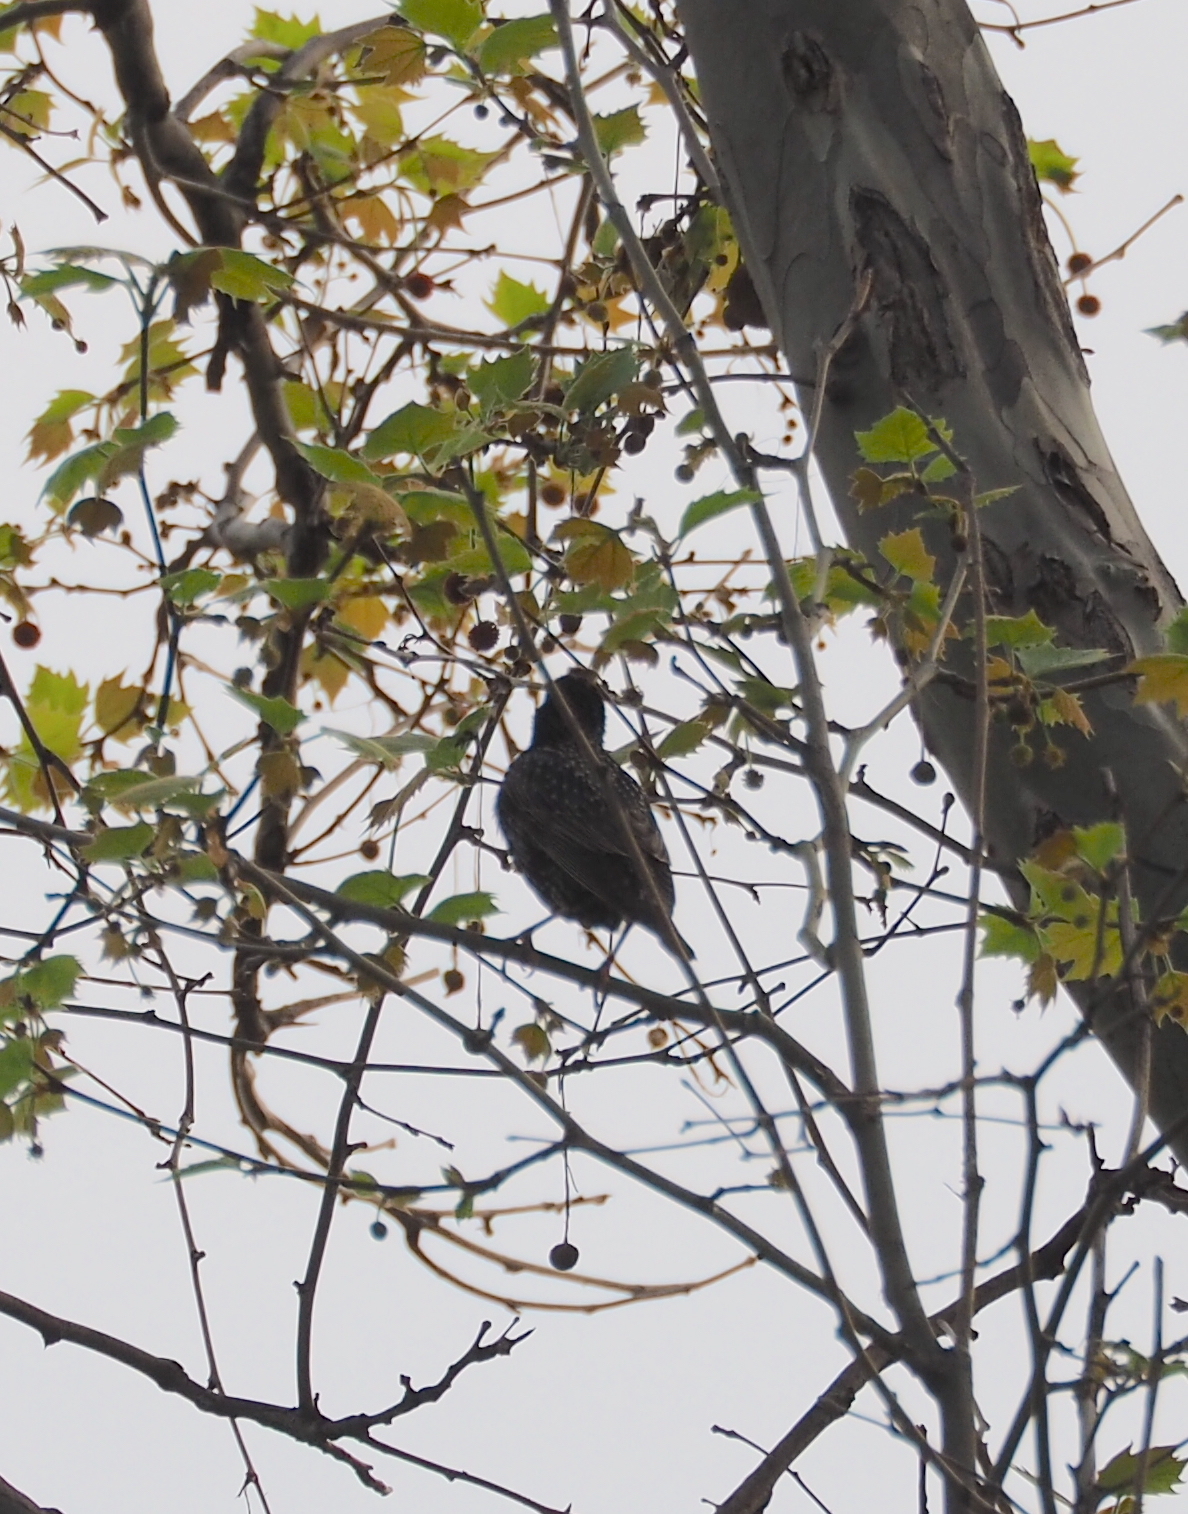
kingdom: Animalia
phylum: Chordata
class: Aves
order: Passeriformes
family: Sturnidae
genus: Sturnus
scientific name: Sturnus vulgaris
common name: Common starling
